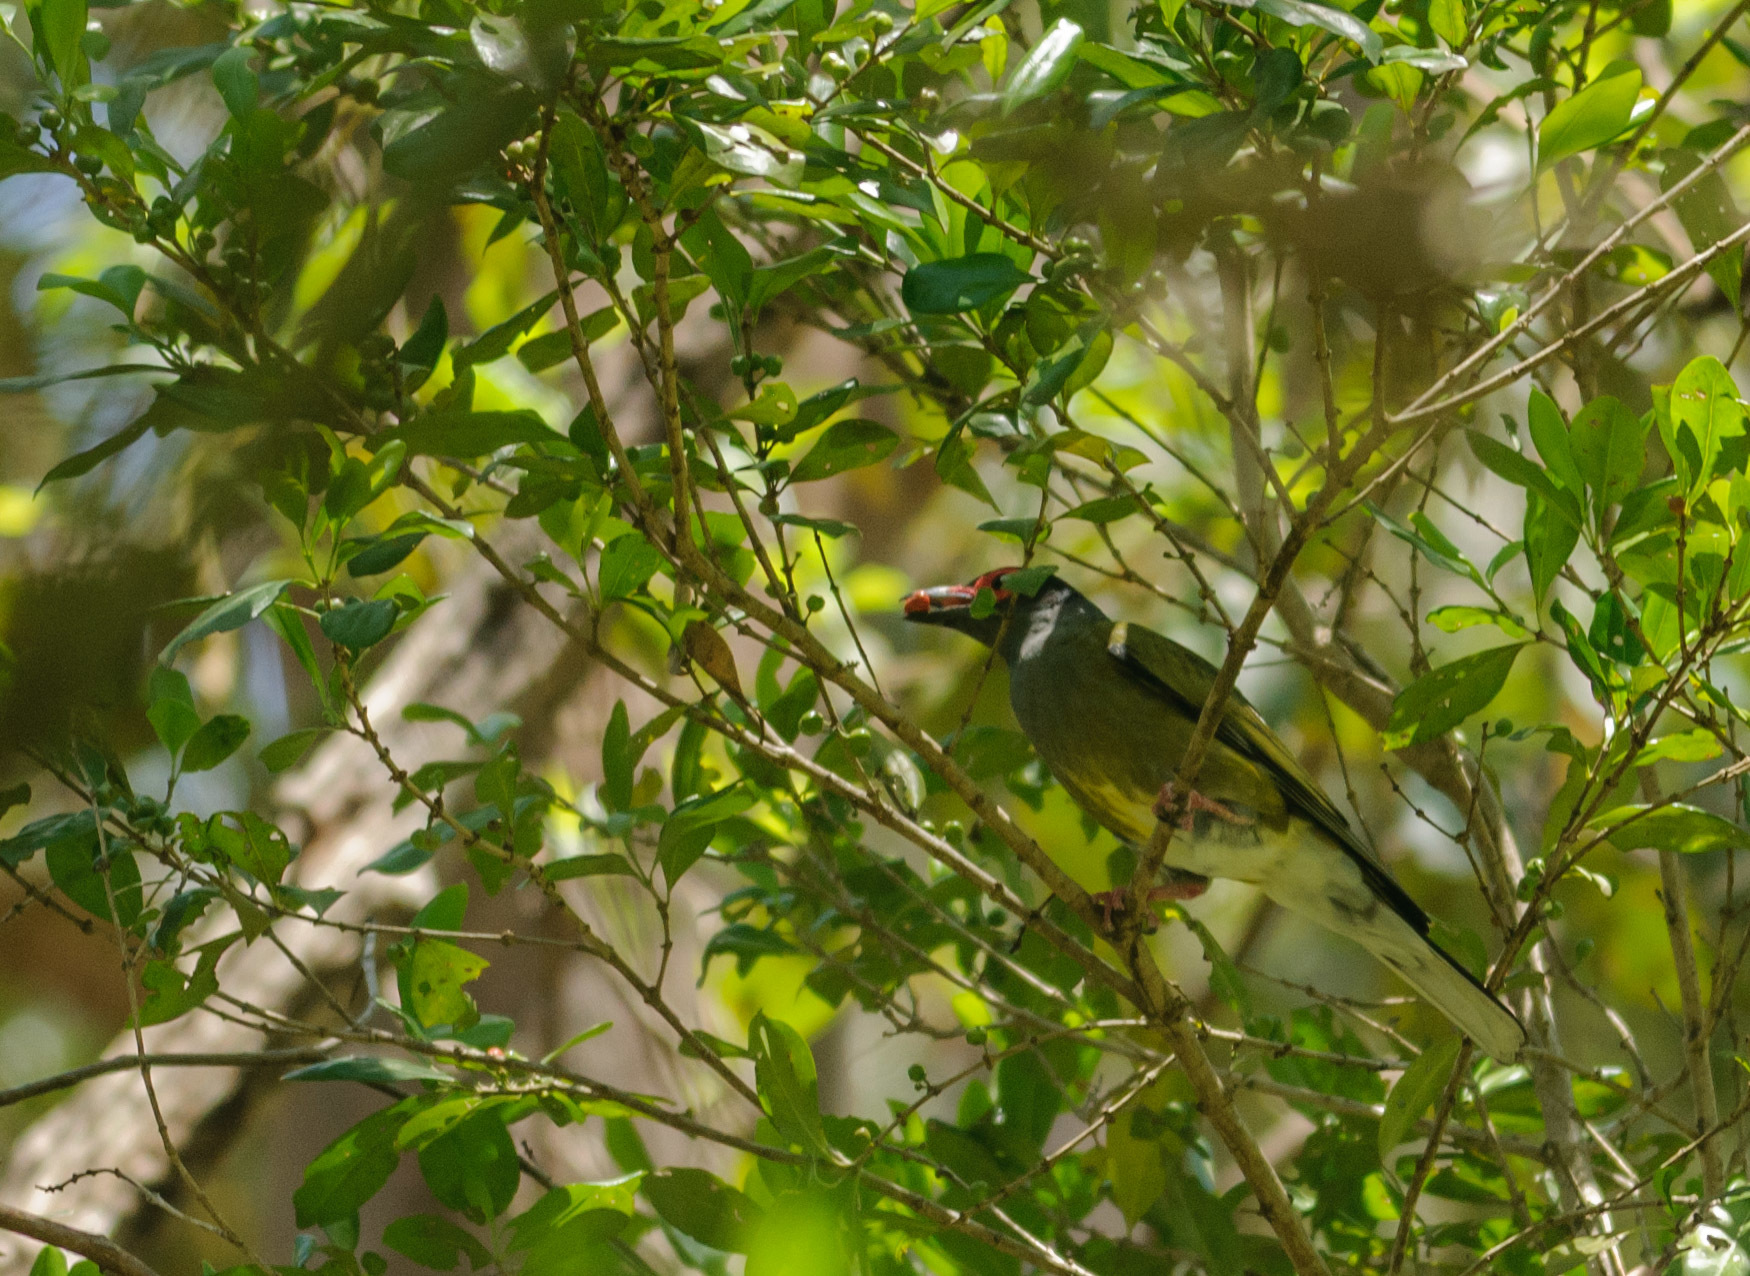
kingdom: Animalia
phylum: Chordata
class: Aves
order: Passeriformes
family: Oriolidae
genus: Sphecotheres
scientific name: Sphecotheres vieilloti
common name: Australasian figbird
